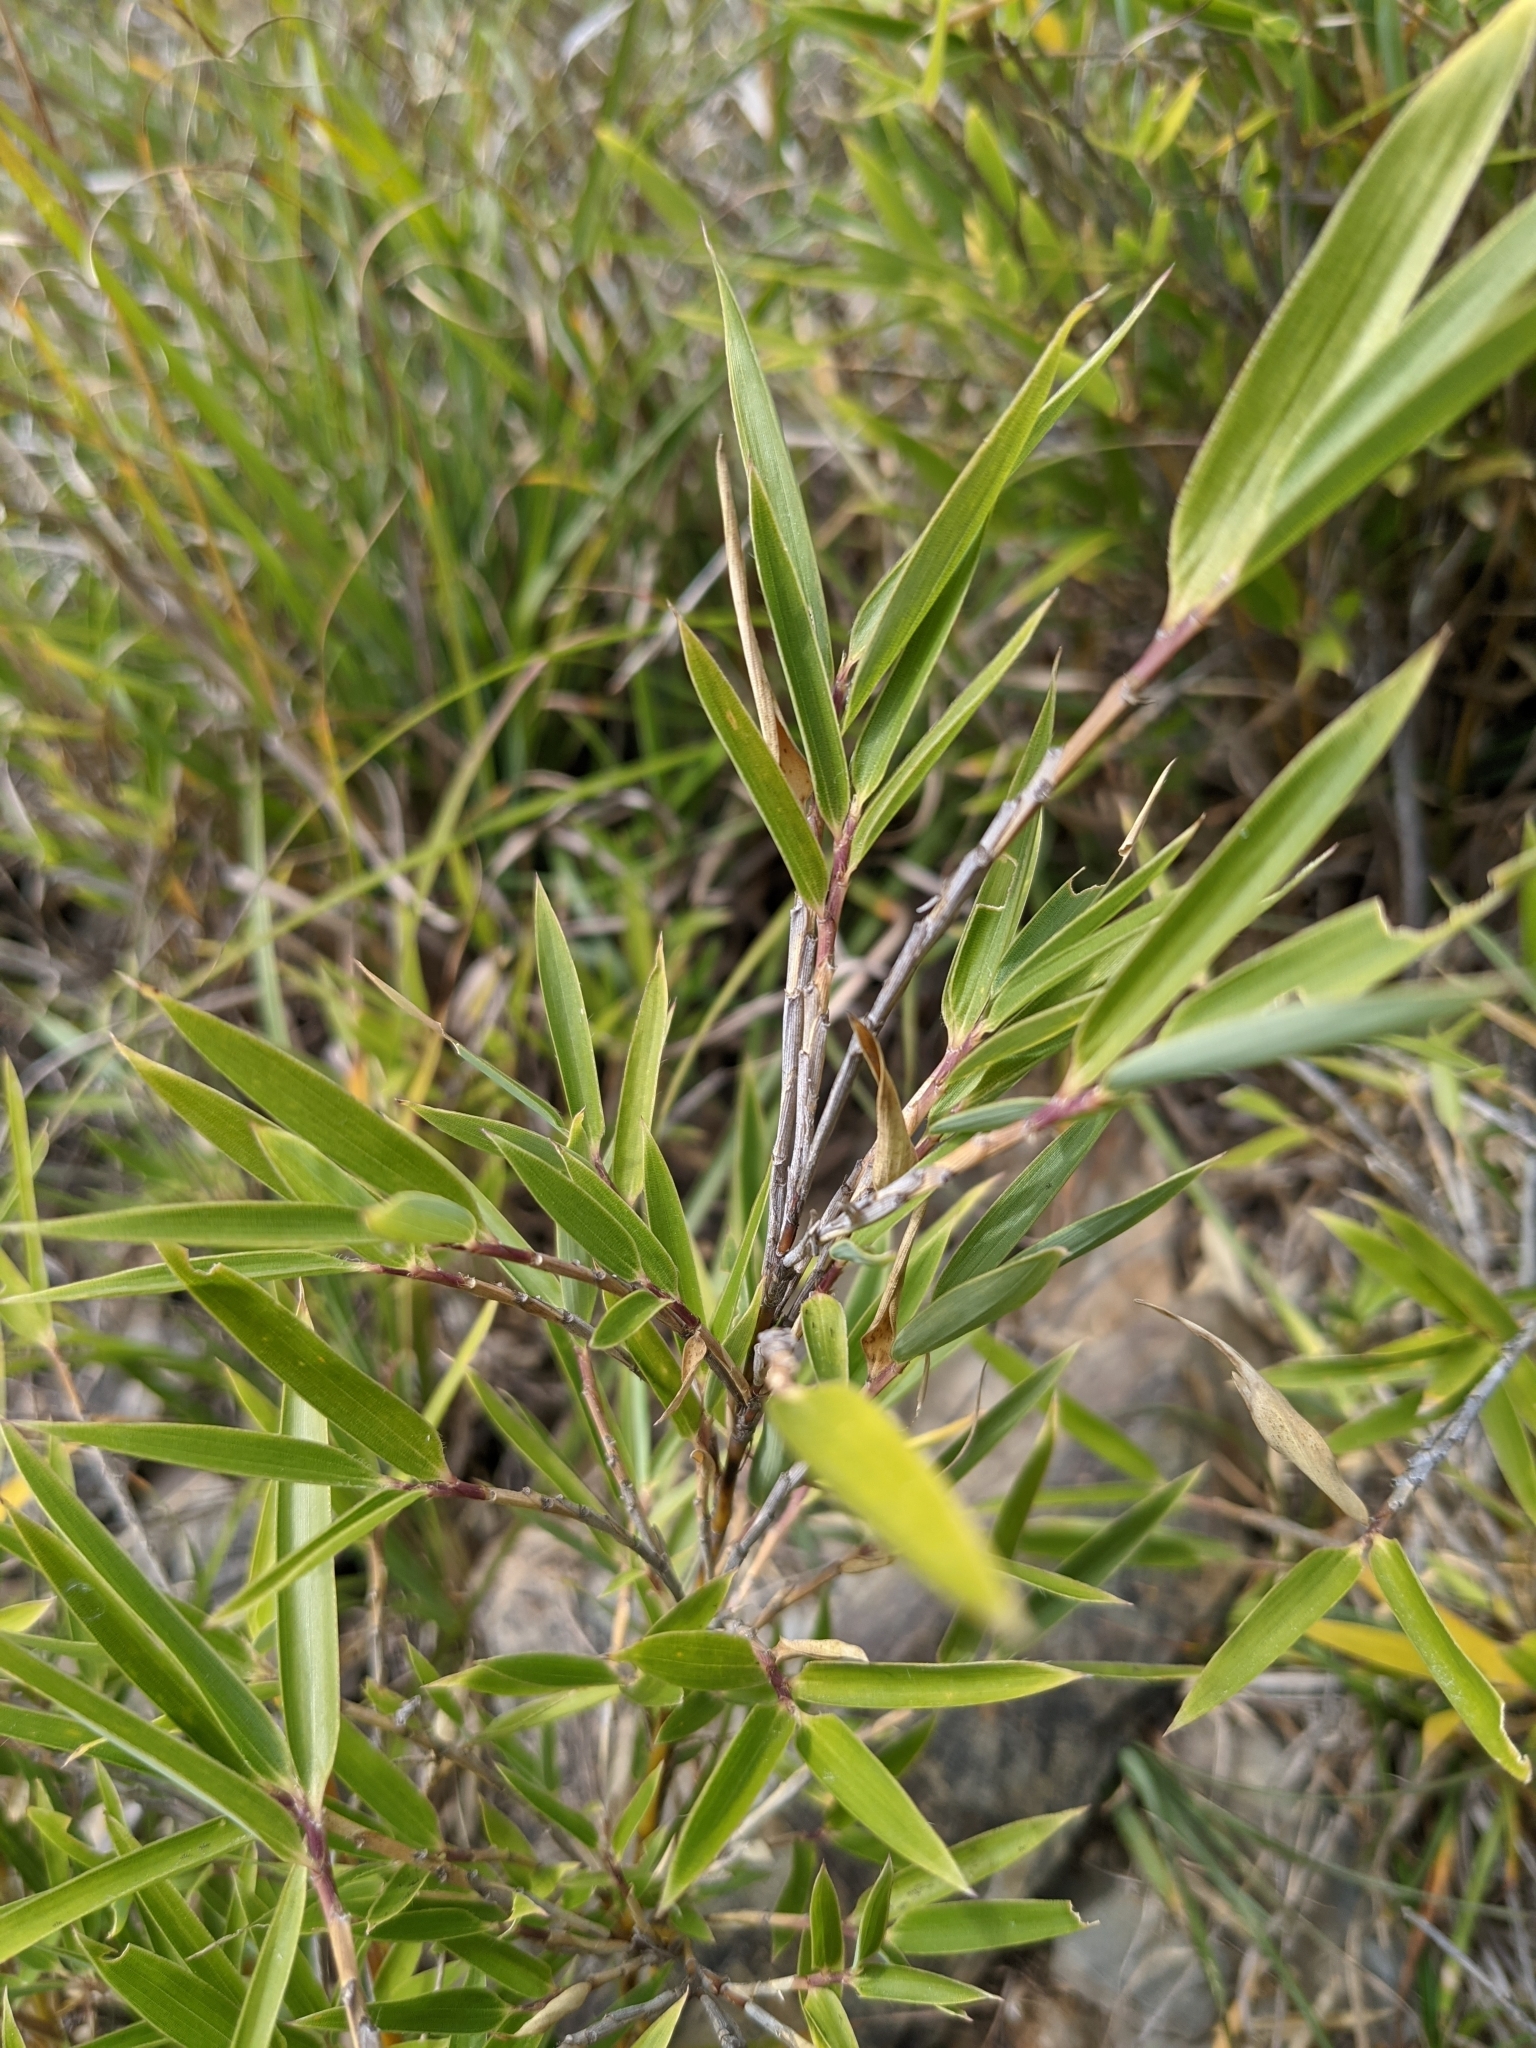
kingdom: Plantae
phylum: Tracheophyta
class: Liliopsida
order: Poales
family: Poaceae
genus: Yushania
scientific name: Yushania niitakayamensis
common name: Yushan cane
